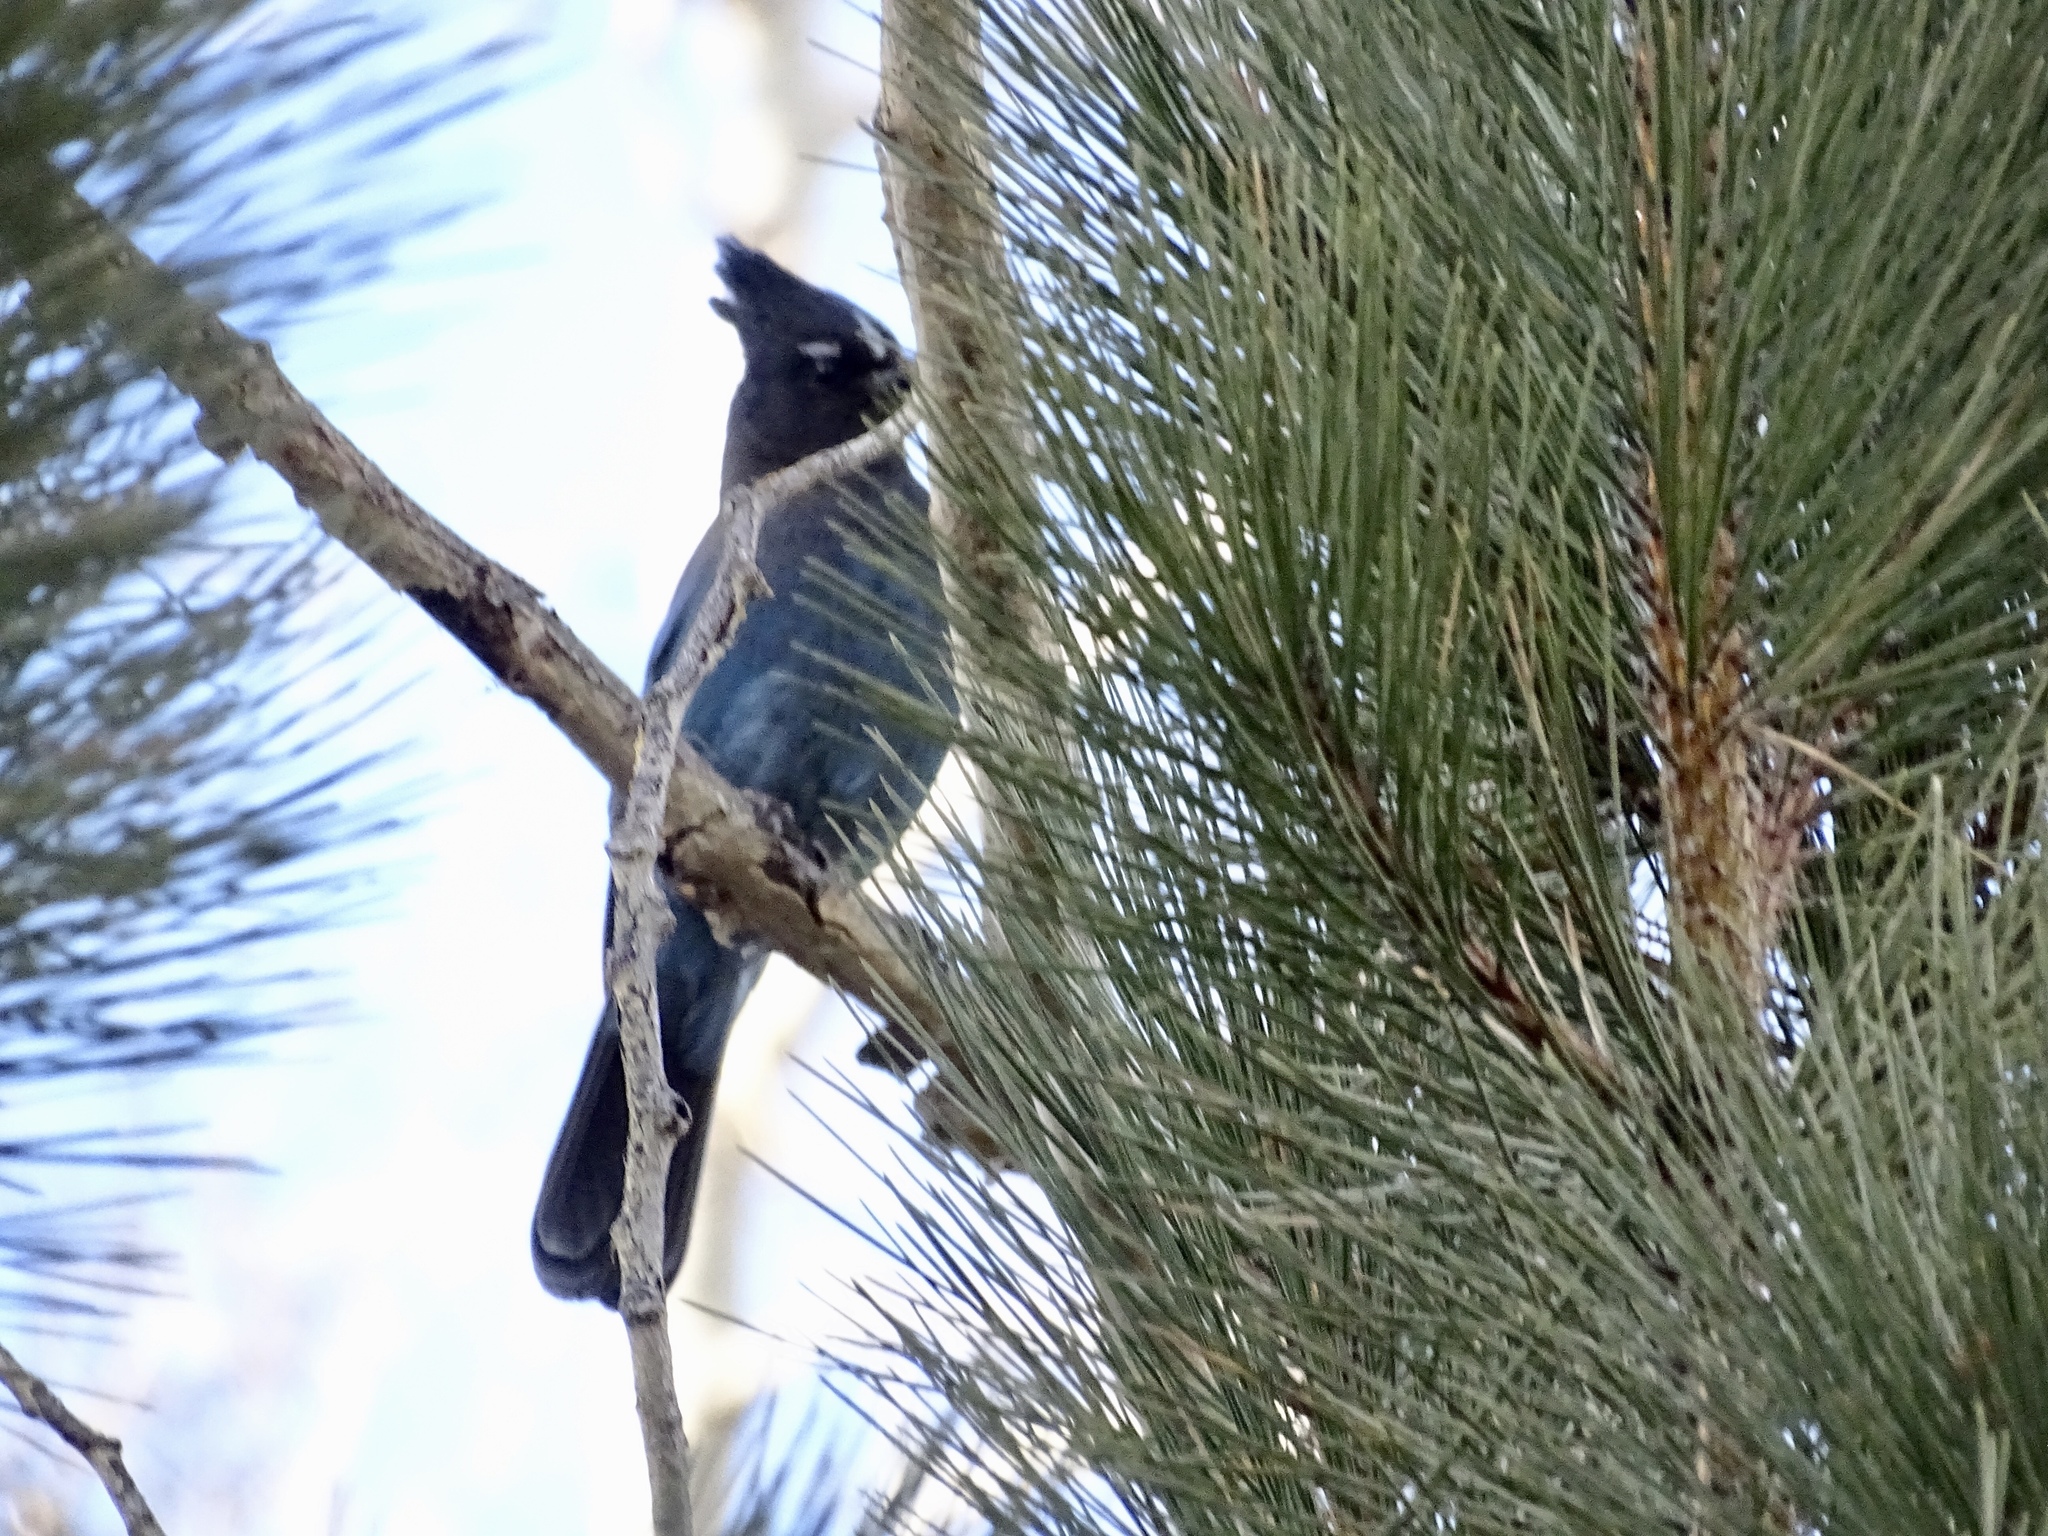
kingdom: Animalia
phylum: Chordata
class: Aves
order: Passeriformes
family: Corvidae
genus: Cyanocitta
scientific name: Cyanocitta stelleri
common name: Steller's jay
